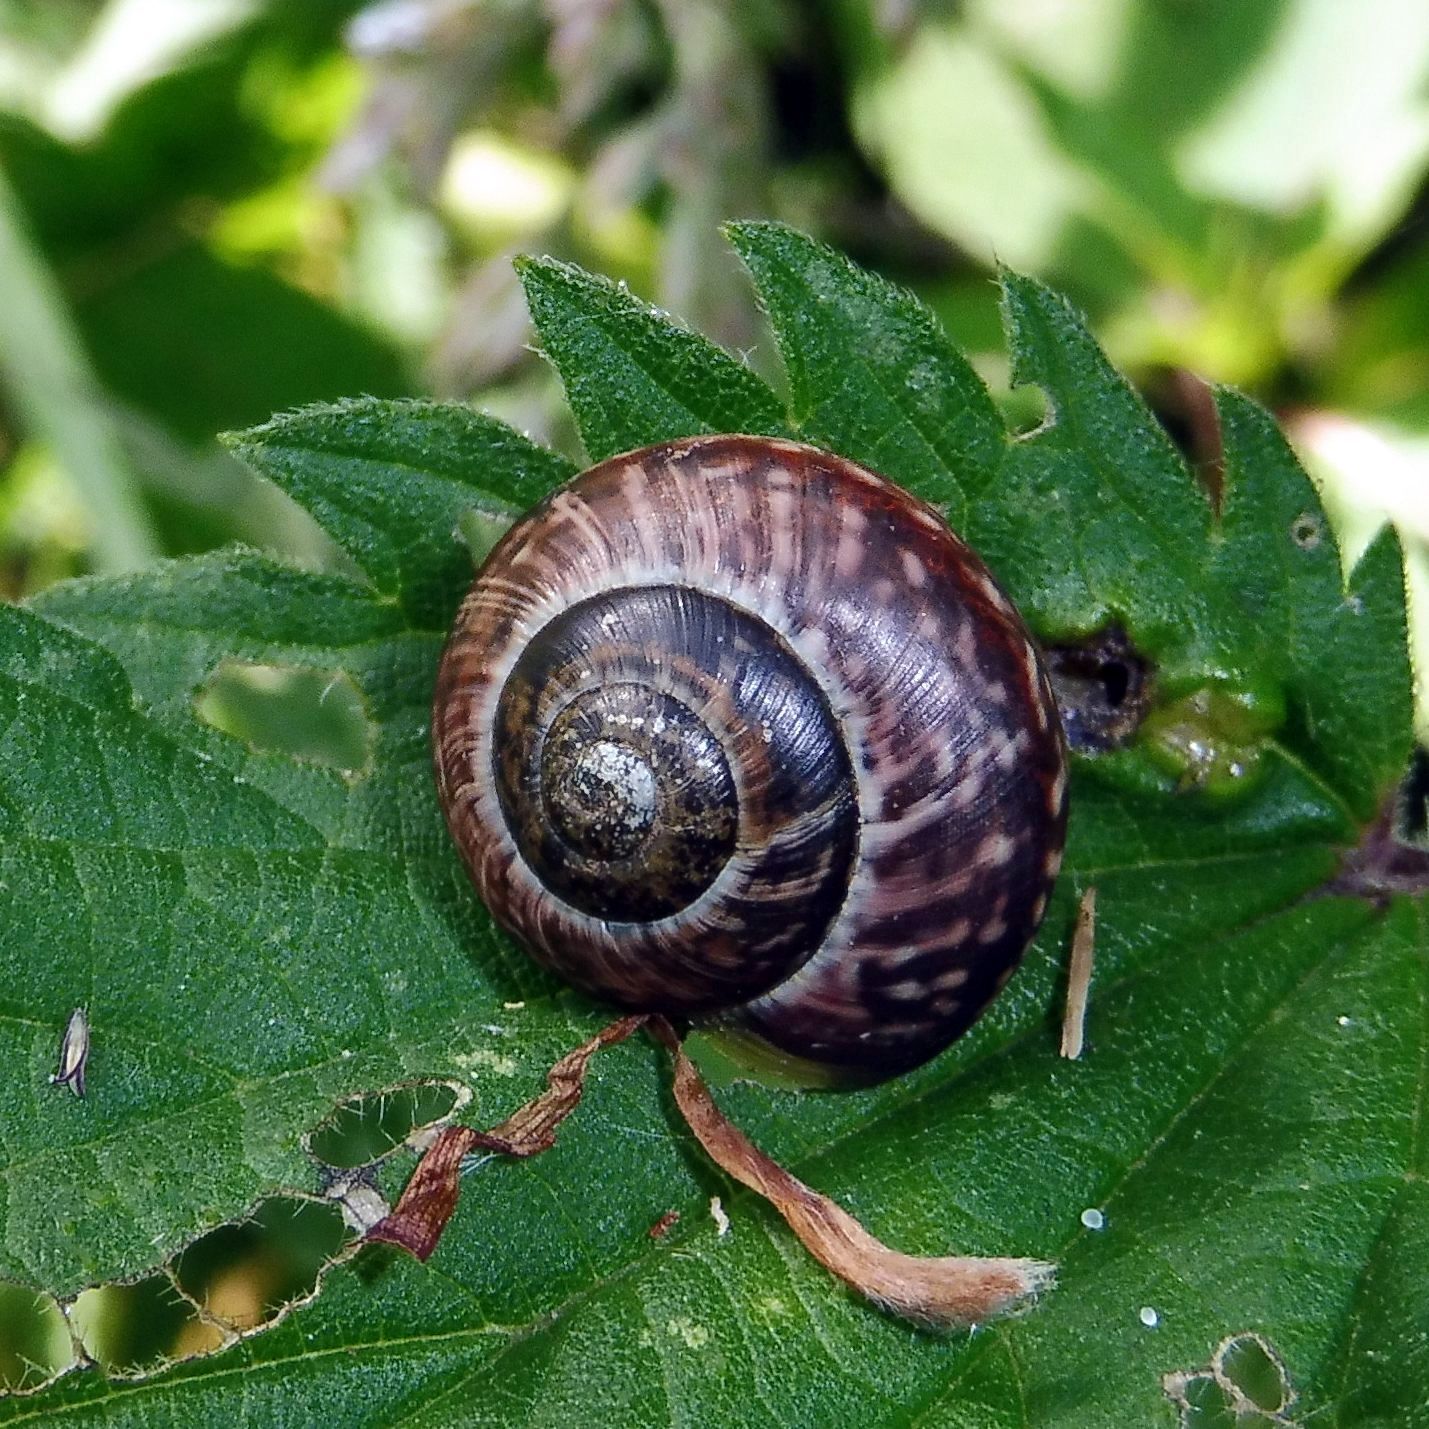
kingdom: Animalia
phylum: Mollusca
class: Gastropoda
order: Stylommatophora
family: Helicidae
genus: Arianta
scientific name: Arianta arbustorum
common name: Copse snail
